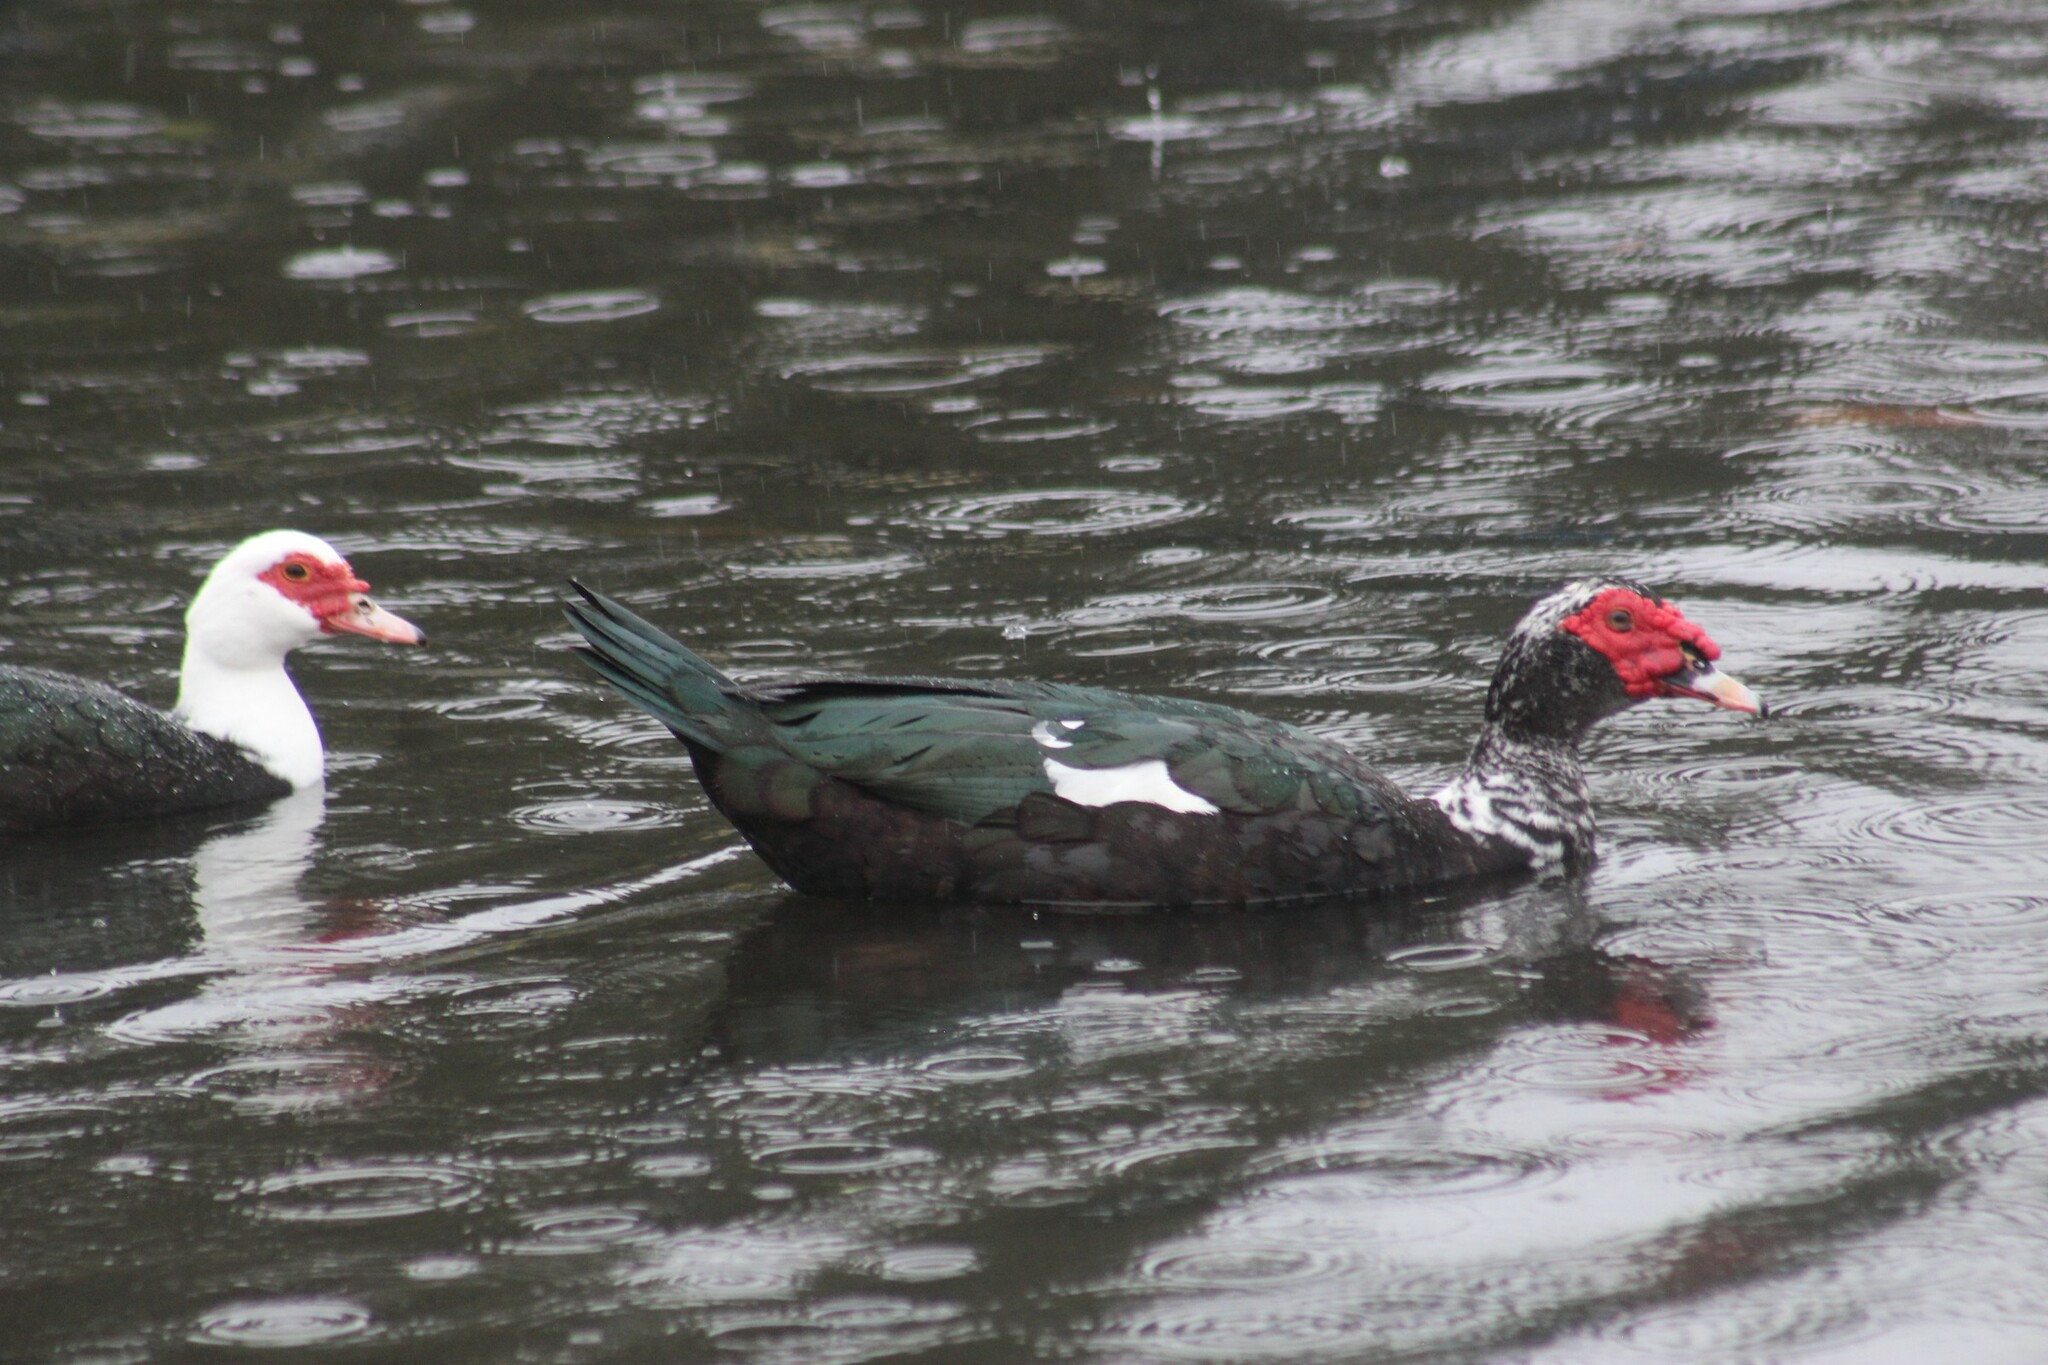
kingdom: Animalia
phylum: Chordata
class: Aves
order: Anseriformes
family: Anatidae
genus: Cairina
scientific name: Cairina moschata
